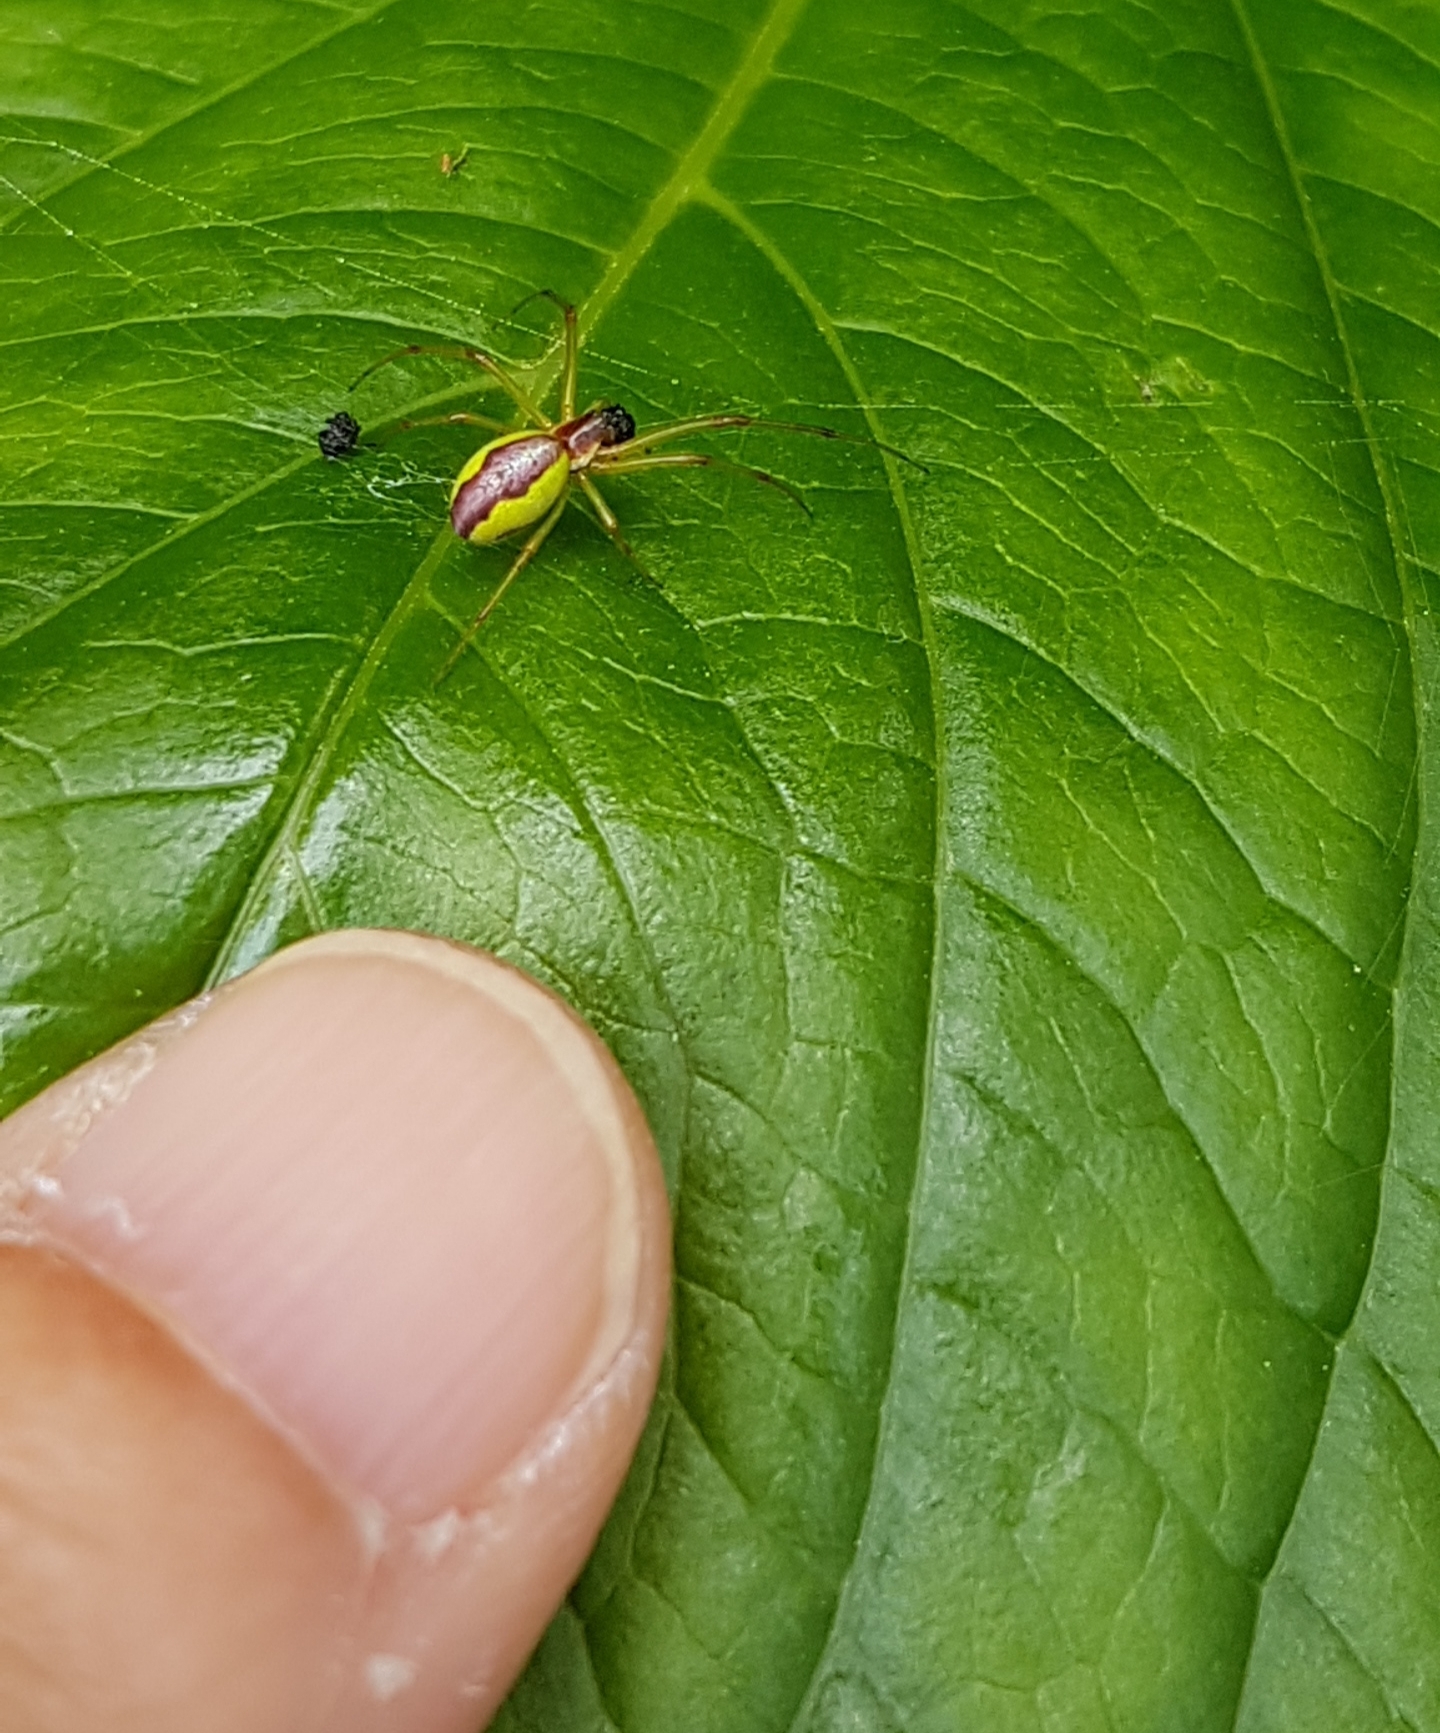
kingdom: Animalia
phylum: Arthropoda
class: Arachnida
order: Araneae
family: Tetragnathidae
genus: Leucognatha
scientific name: Leucognatha acoreensis
